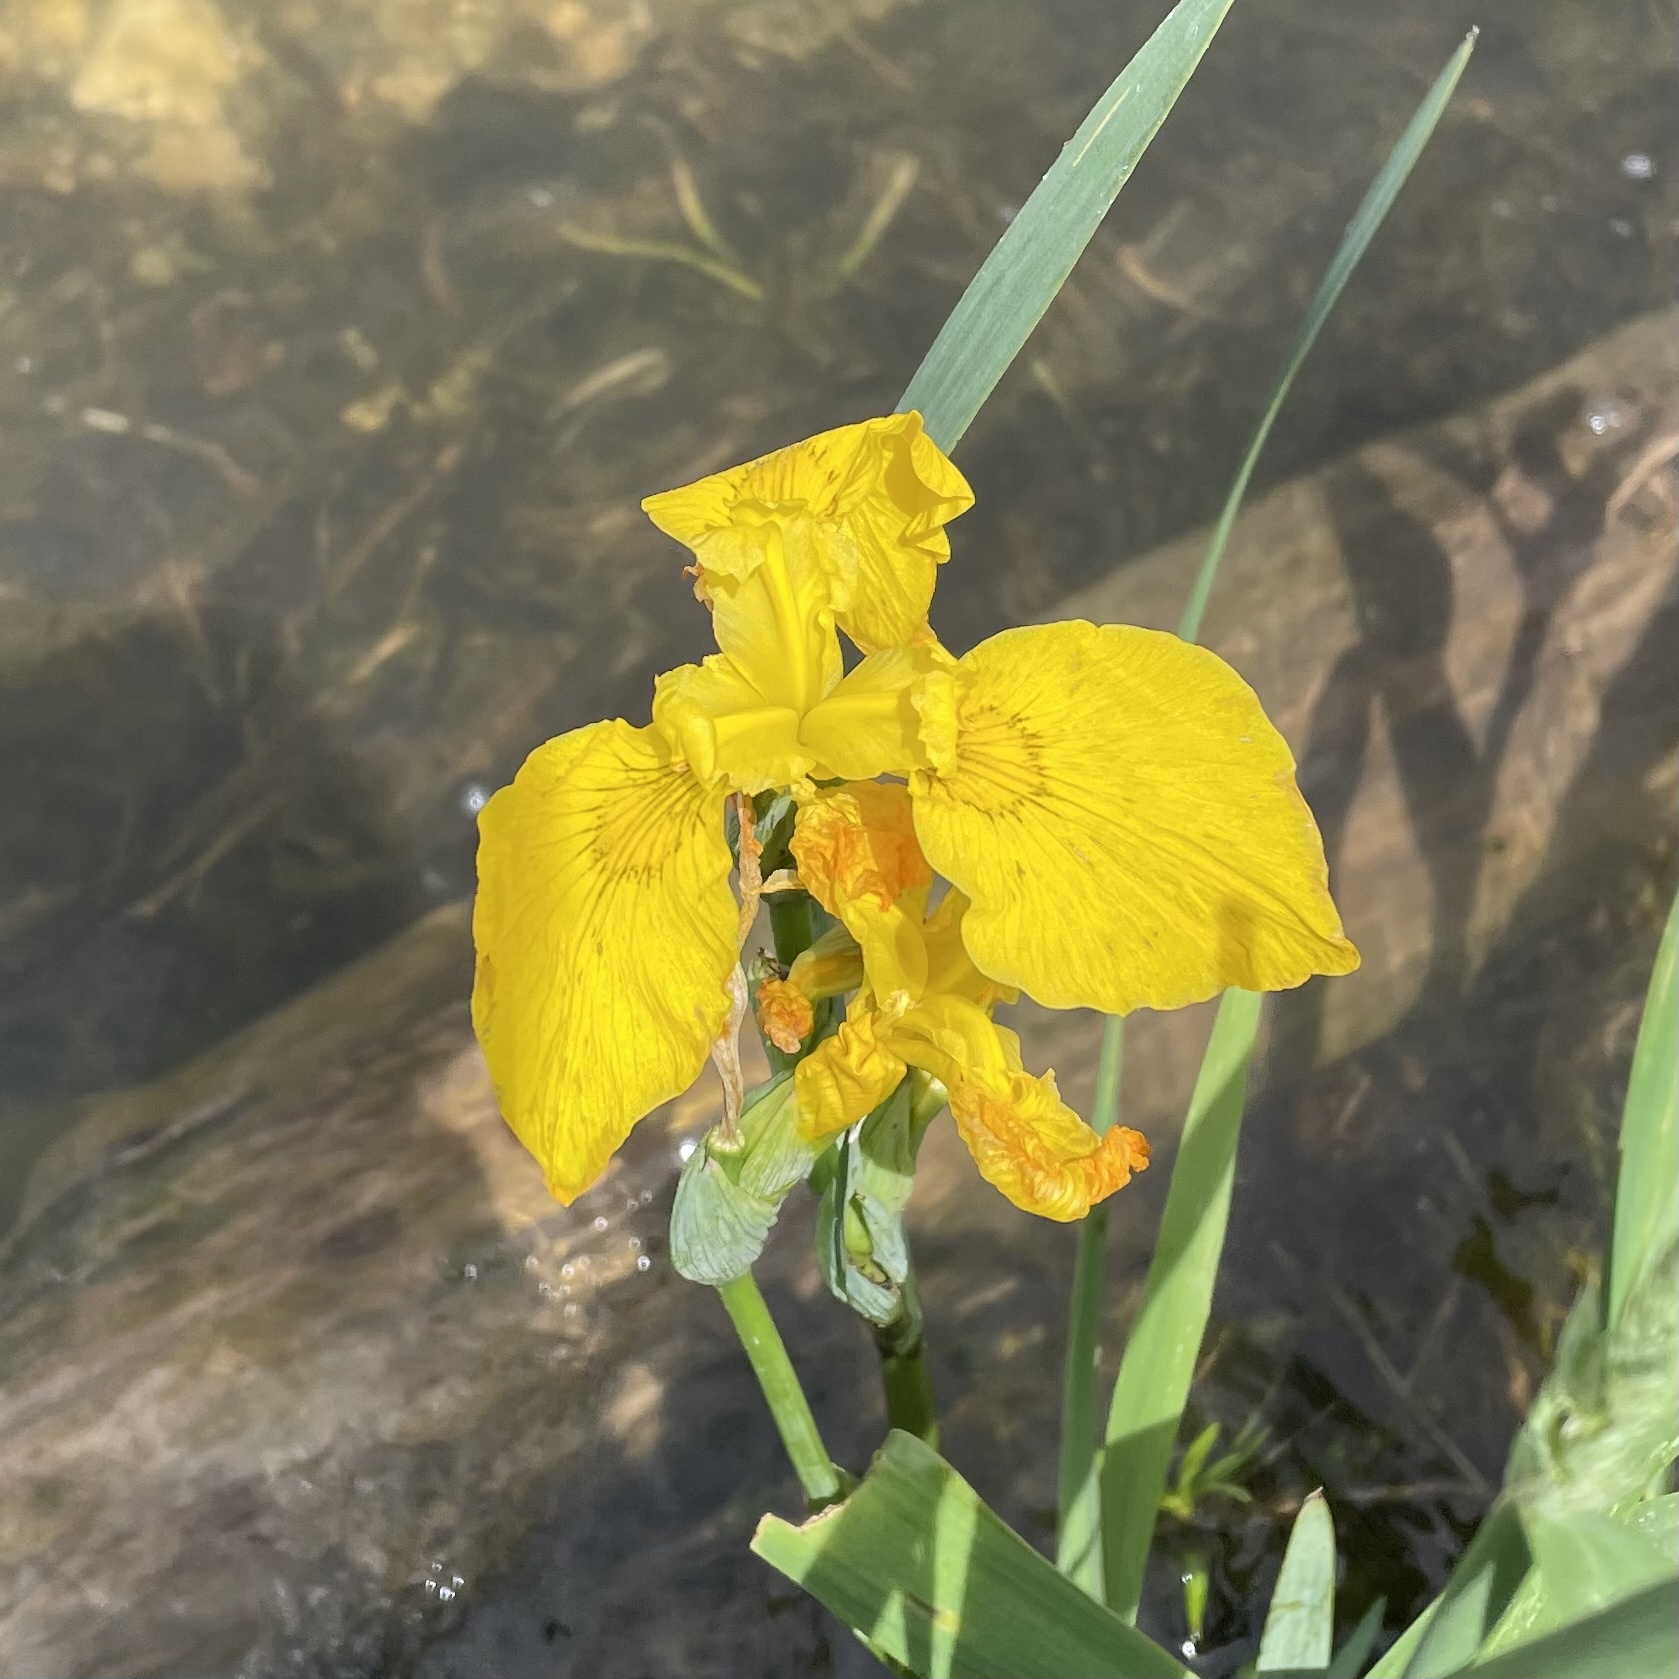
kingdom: Plantae
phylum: Tracheophyta
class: Liliopsida
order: Asparagales
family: Iridaceae
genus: Iris
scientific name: Iris pseudacorus
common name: Yellow flag
